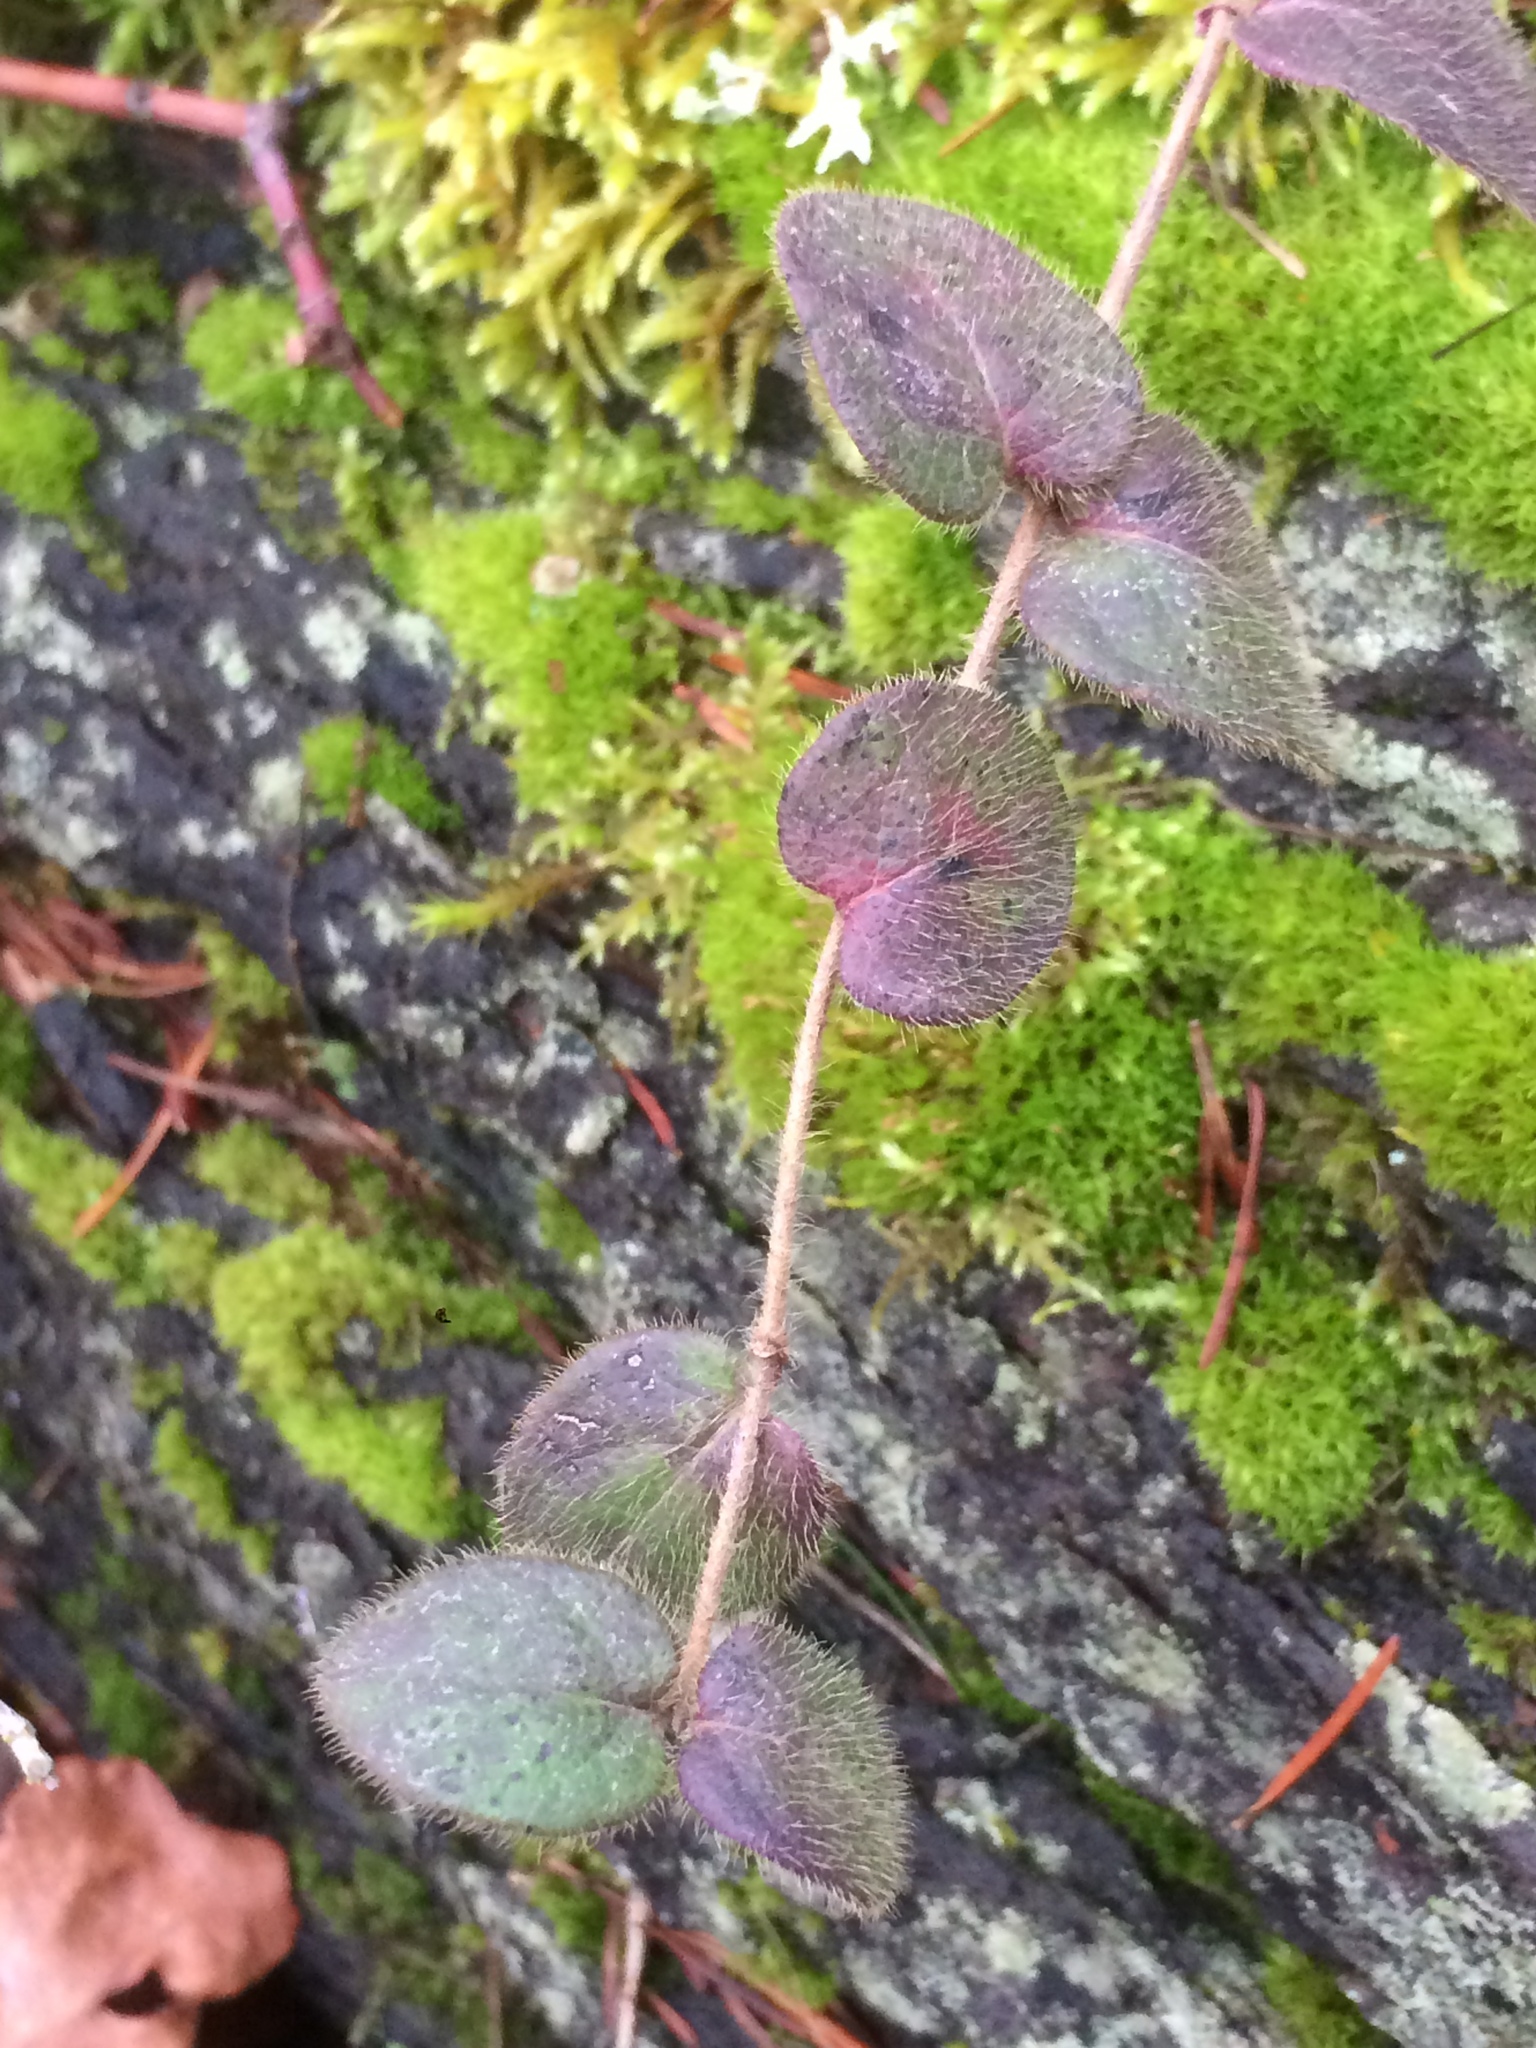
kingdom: Plantae
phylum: Tracheophyta
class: Magnoliopsida
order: Dipsacales
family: Caprifoliaceae
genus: Lonicera
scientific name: Lonicera hispidula
